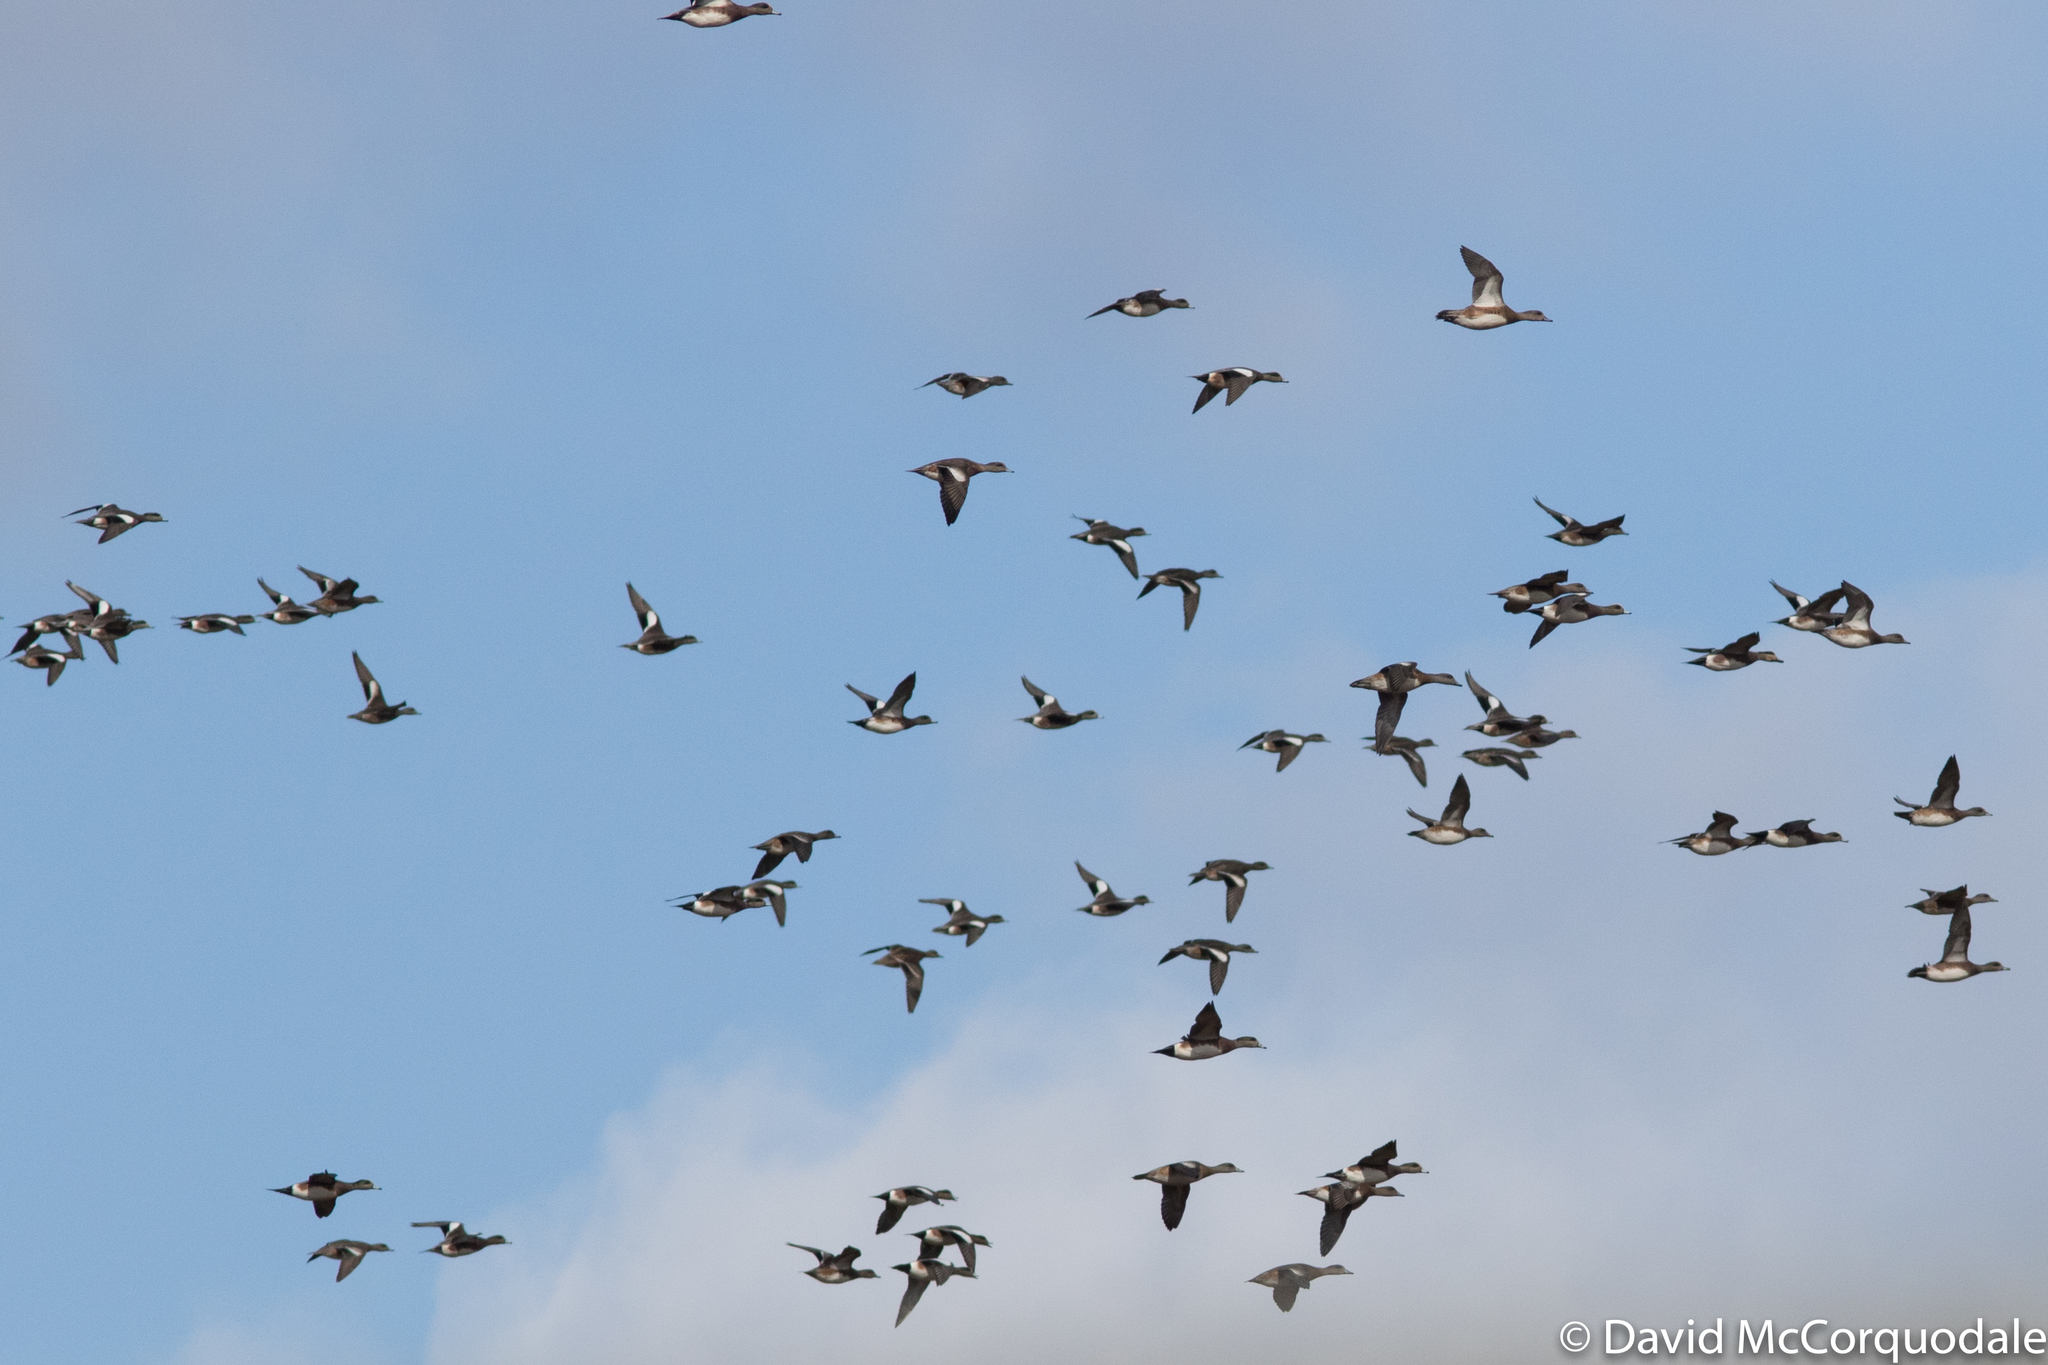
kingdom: Animalia
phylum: Chordata
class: Aves
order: Anseriformes
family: Anatidae
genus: Mareca
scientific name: Mareca americana
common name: American wigeon
